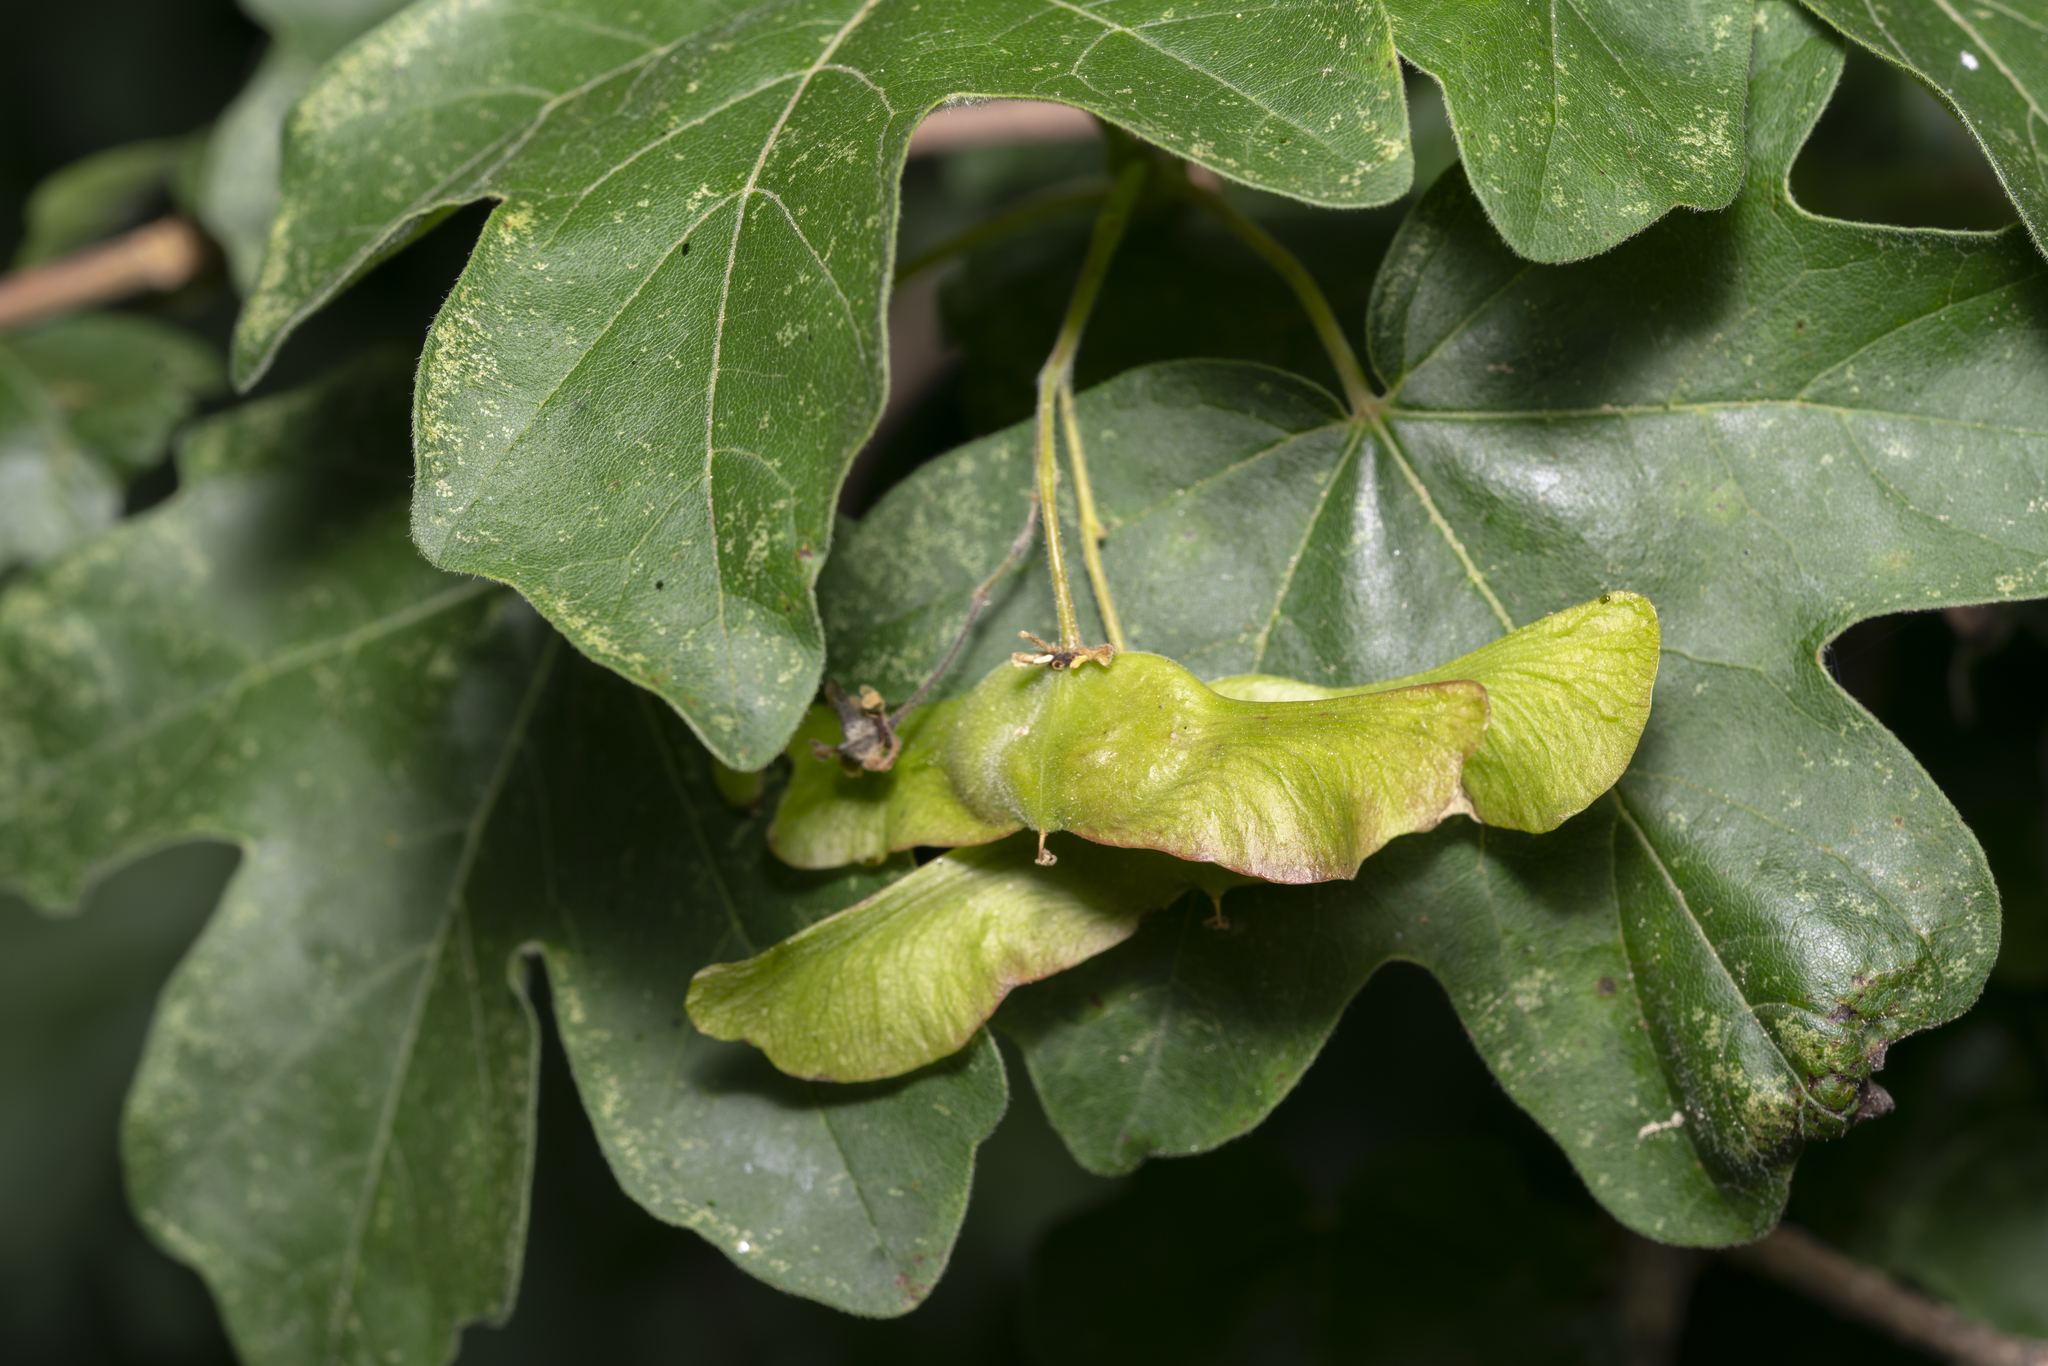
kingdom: Plantae
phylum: Tracheophyta
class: Magnoliopsida
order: Sapindales
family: Sapindaceae
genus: Acer
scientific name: Acer campestre
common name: Field maple
